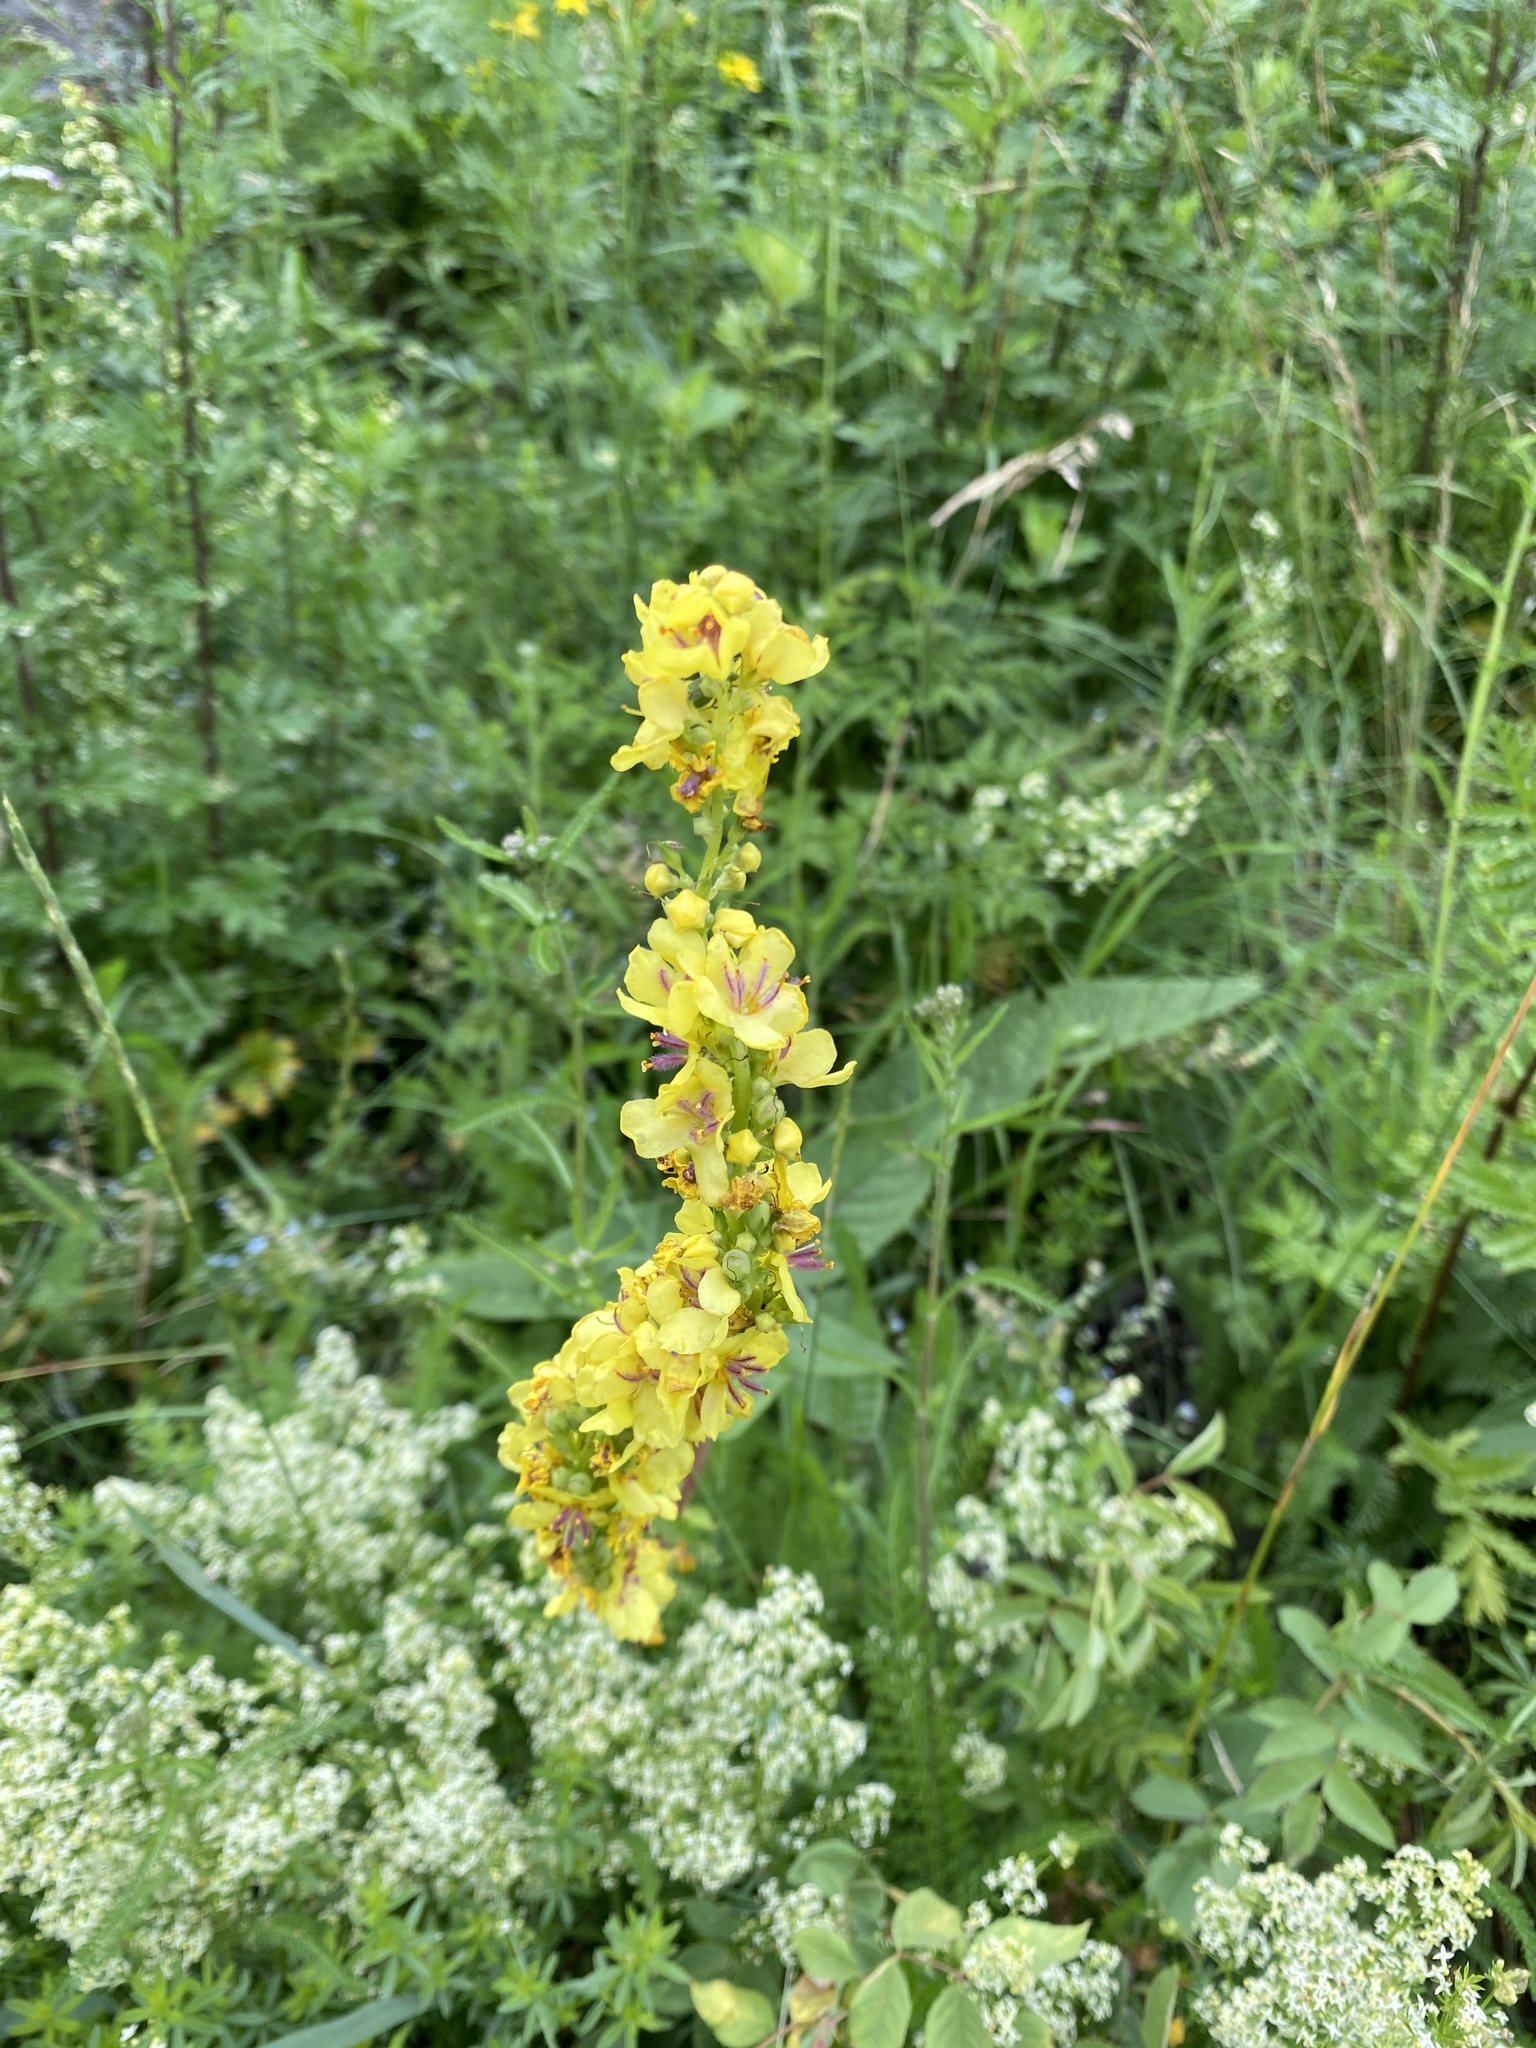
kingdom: Plantae
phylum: Tracheophyta
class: Magnoliopsida
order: Lamiales
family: Scrophulariaceae
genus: Verbascum
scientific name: Verbascum nigrum
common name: Dark mullein
